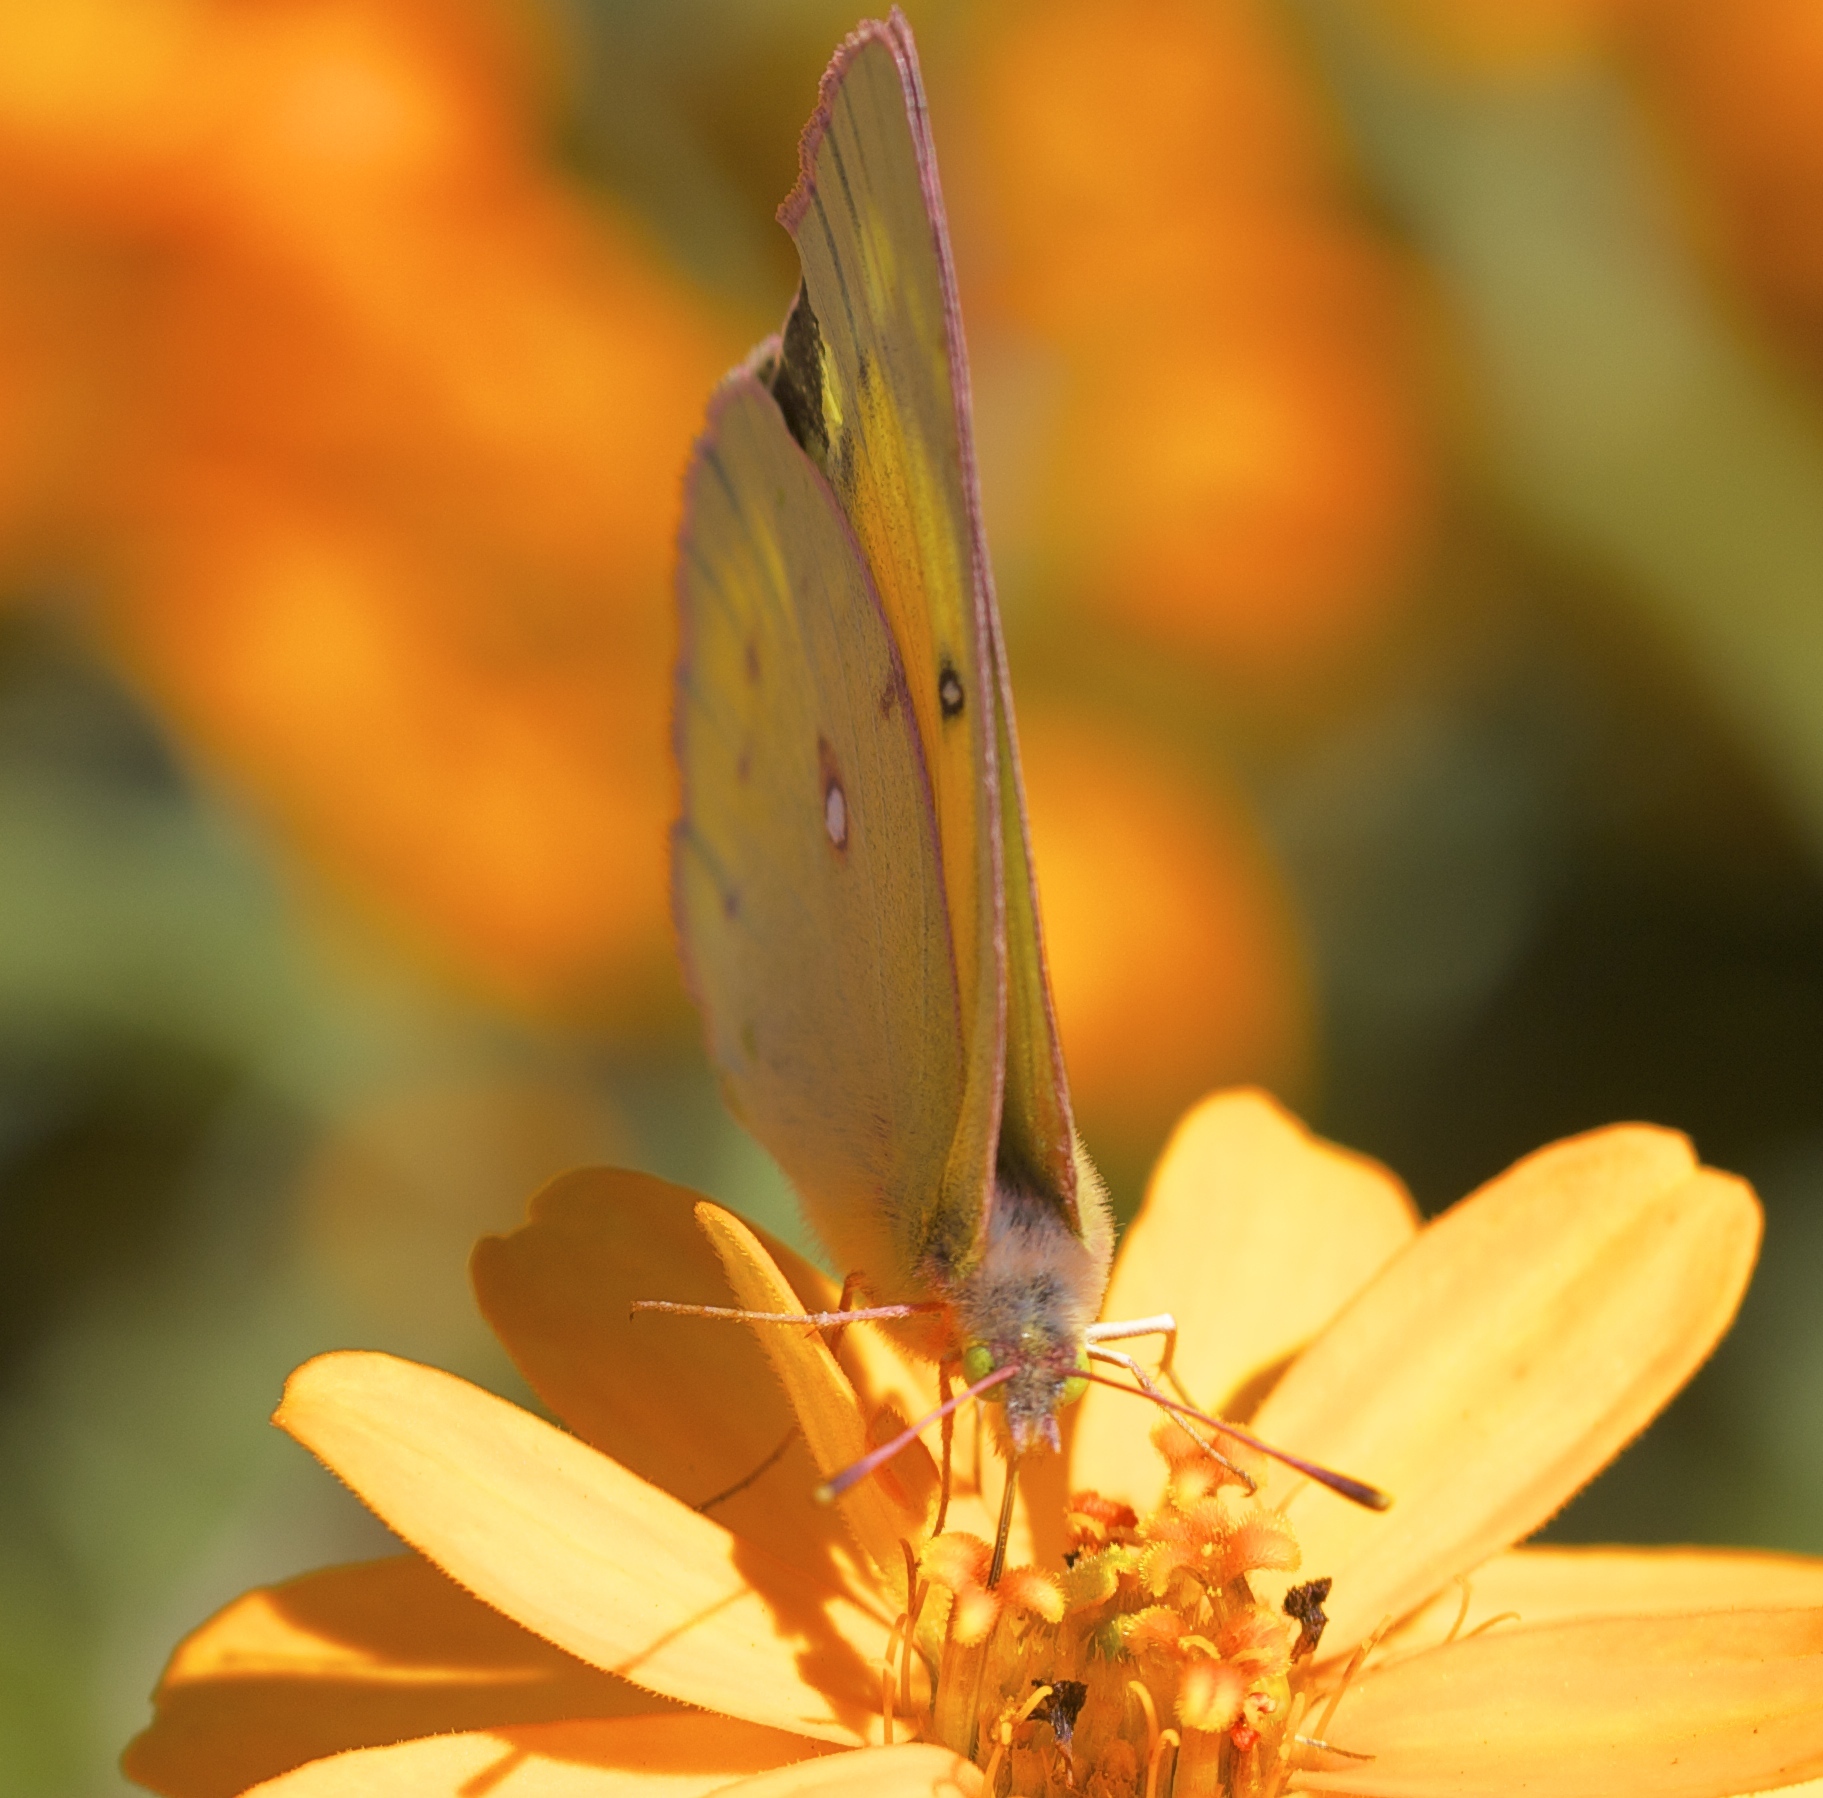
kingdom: Animalia
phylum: Arthropoda
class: Insecta
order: Lepidoptera
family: Pieridae
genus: Colias
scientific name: Colias eurytheme
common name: Alfalfa butterfly
